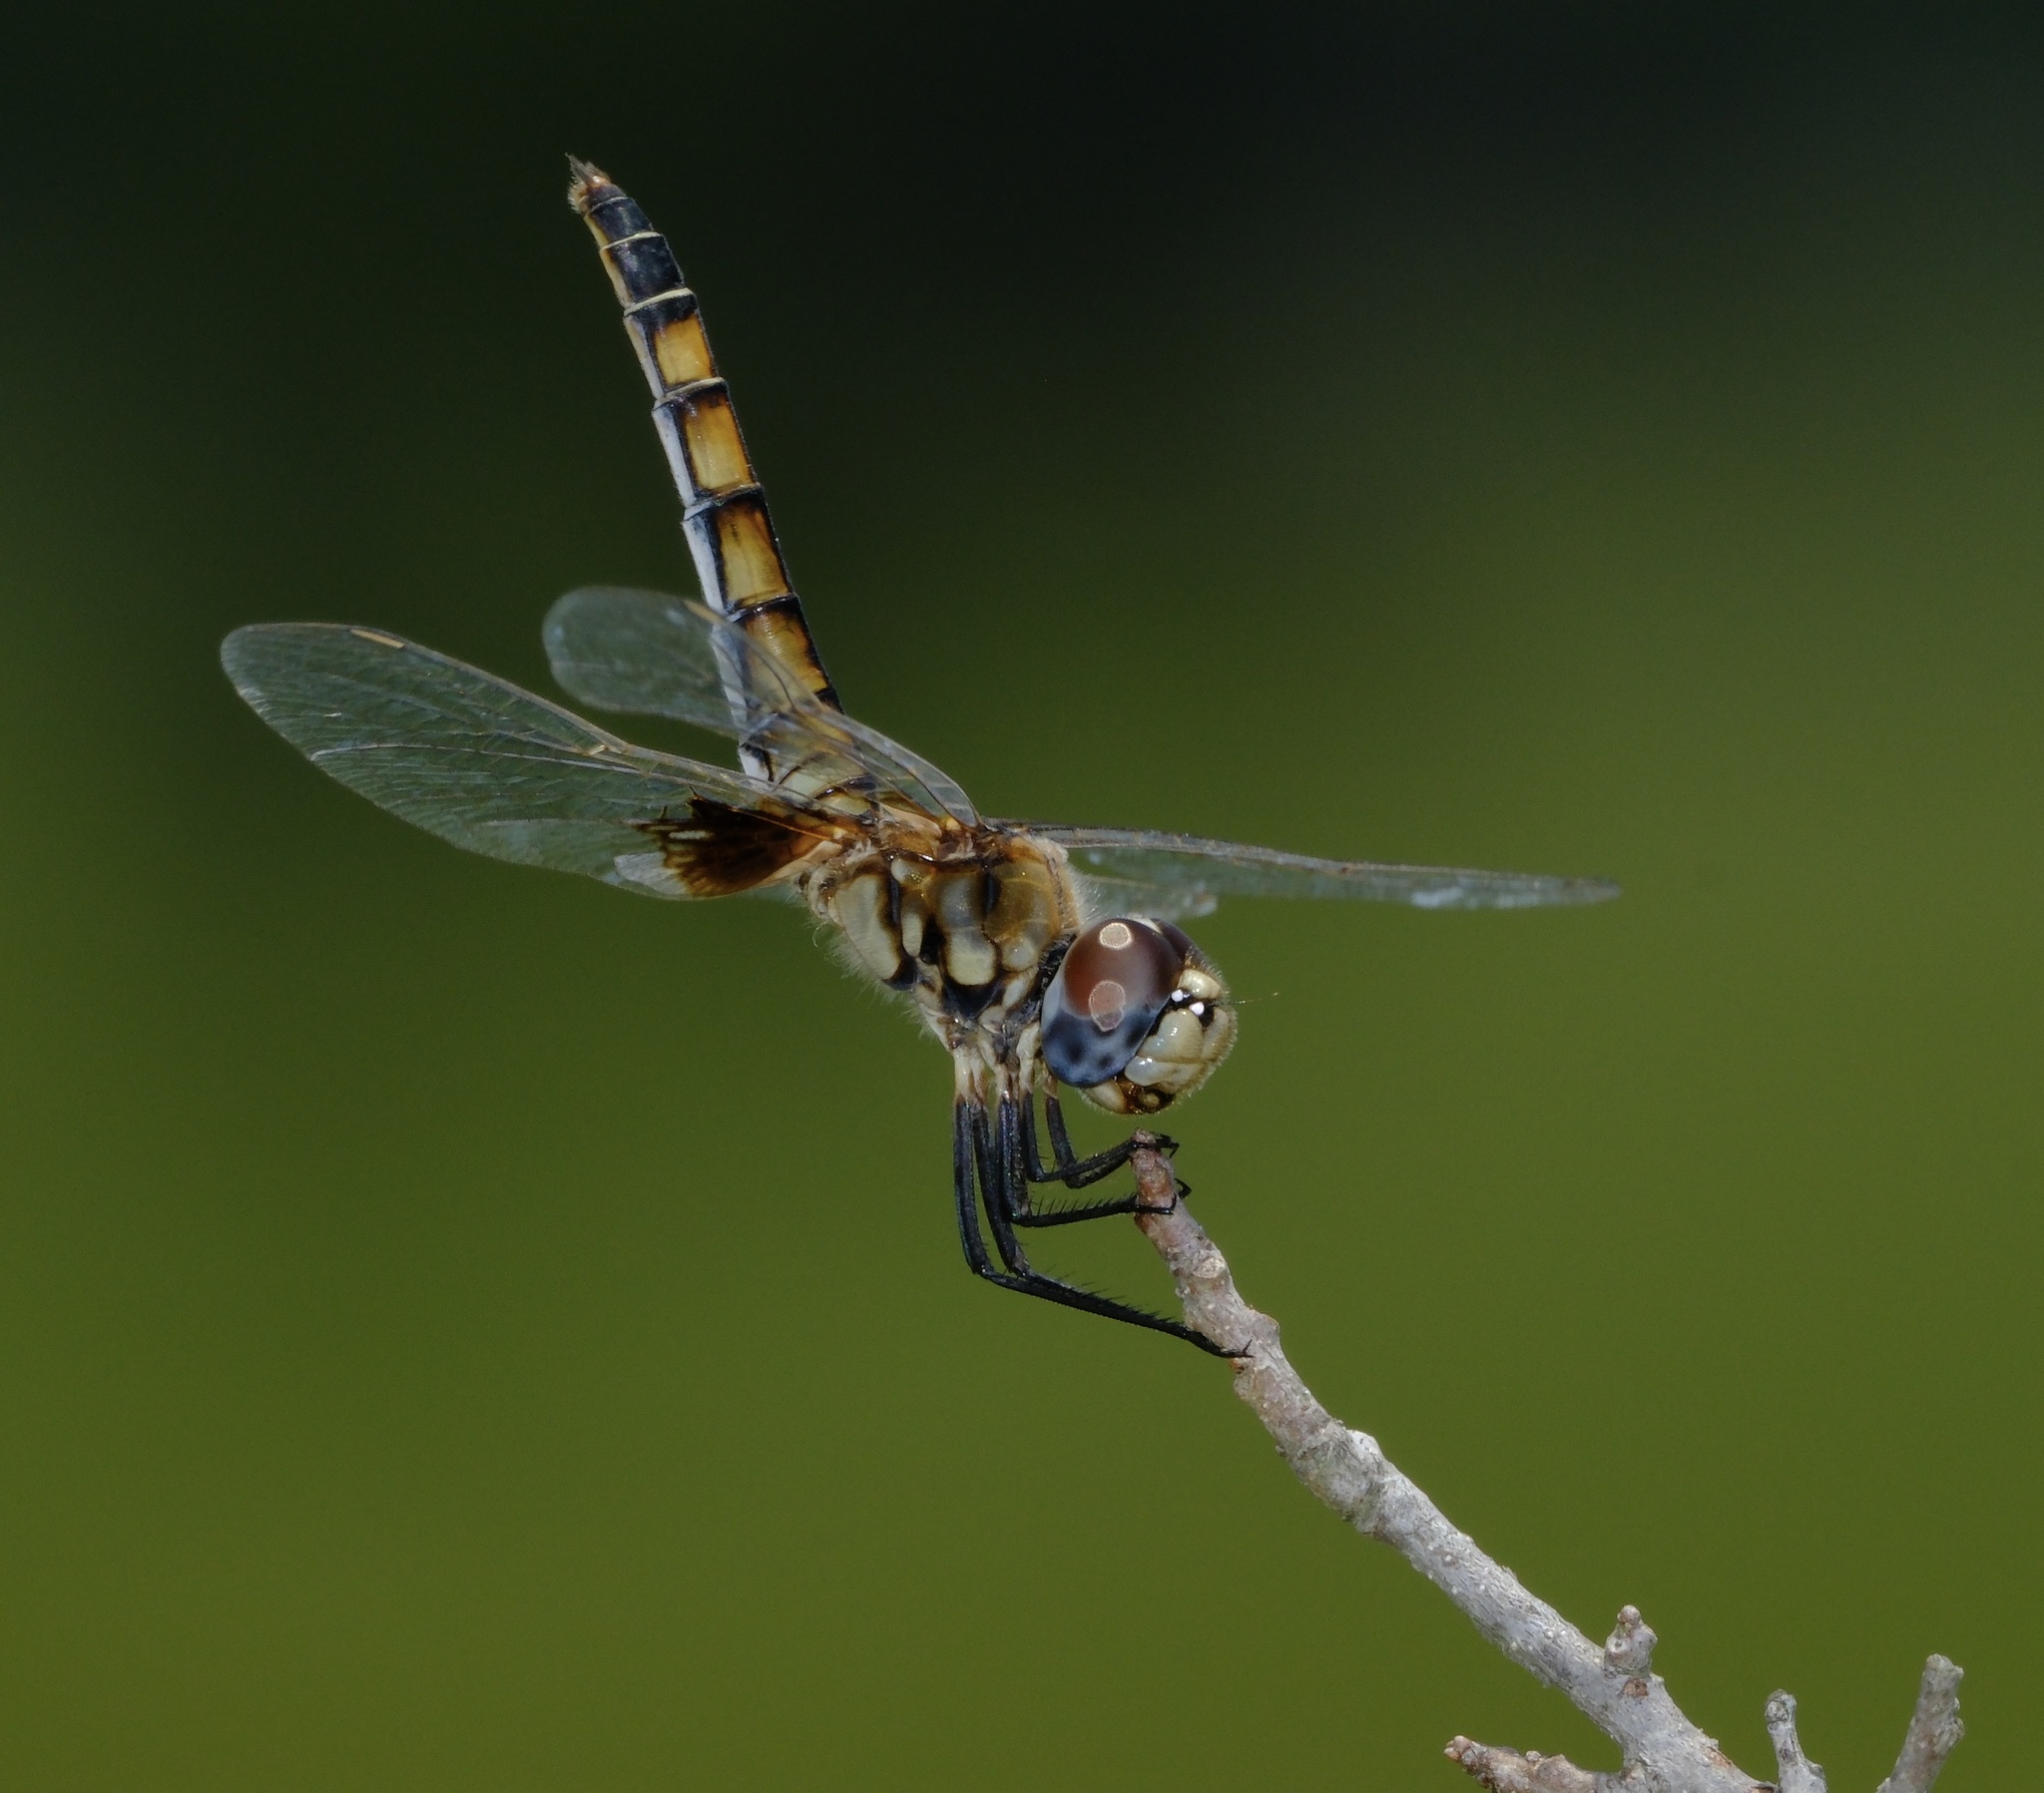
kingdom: Animalia
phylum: Arthropoda
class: Insecta
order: Odonata
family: Libellulidae
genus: Macrodiplax
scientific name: Macrodiplax balteata
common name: Marl pennant
